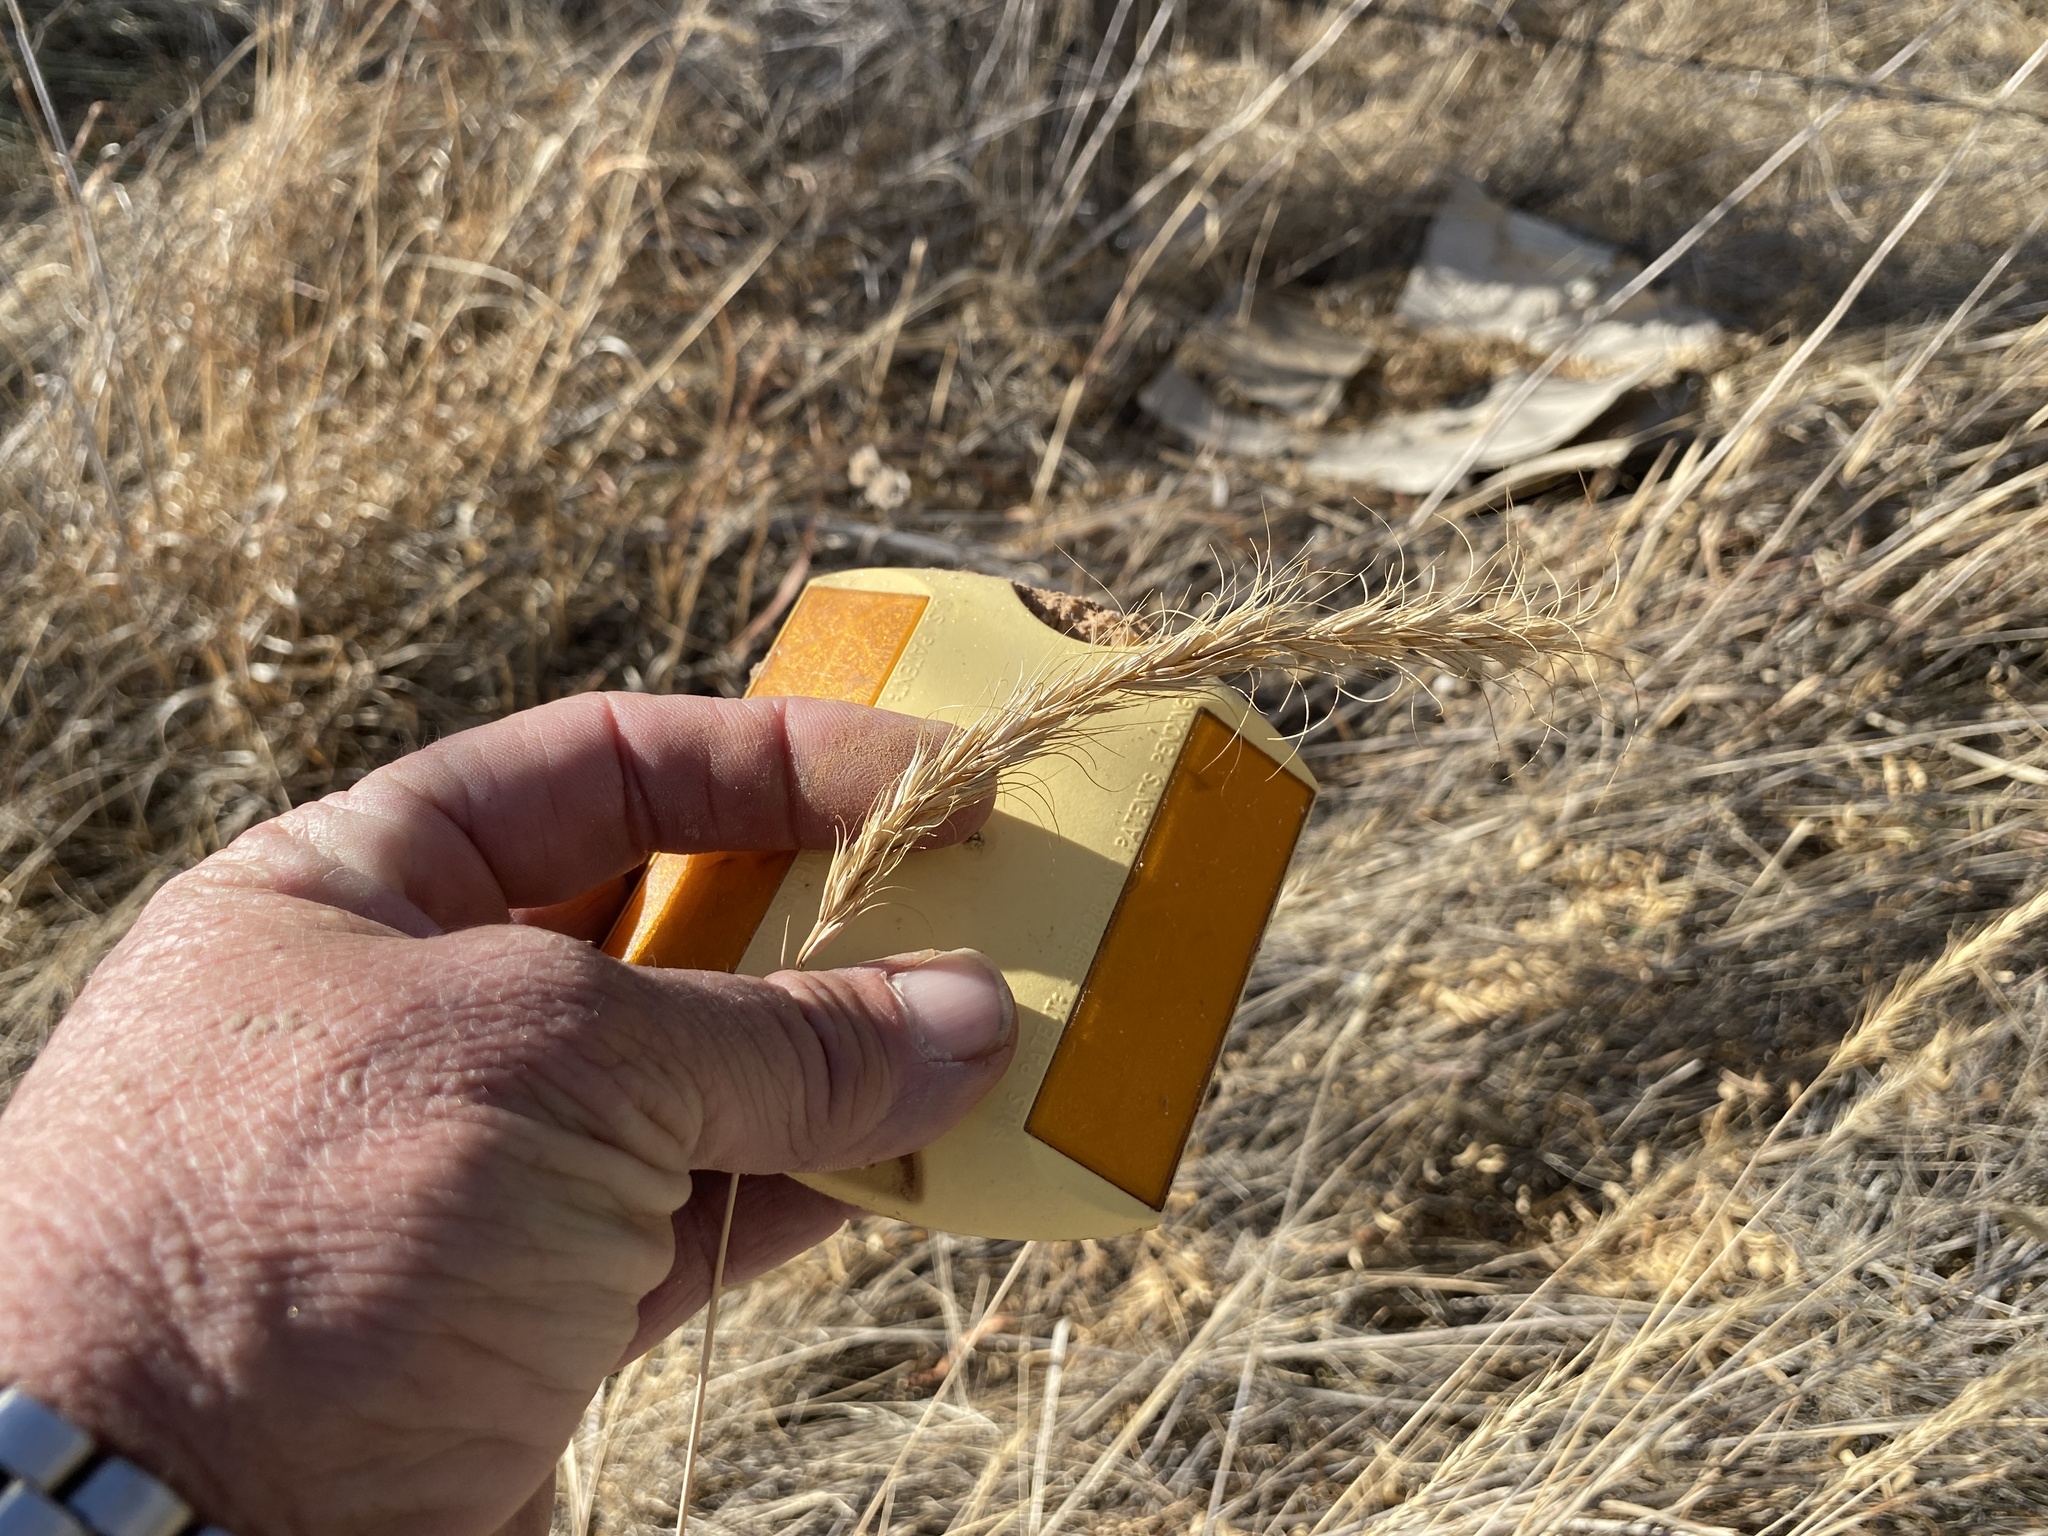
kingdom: Plantae
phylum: Tracheophyta
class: Liliopsida
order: Poales
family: Poaceae
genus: Elymus
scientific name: Elymus canadensis
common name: Canada wild rye
